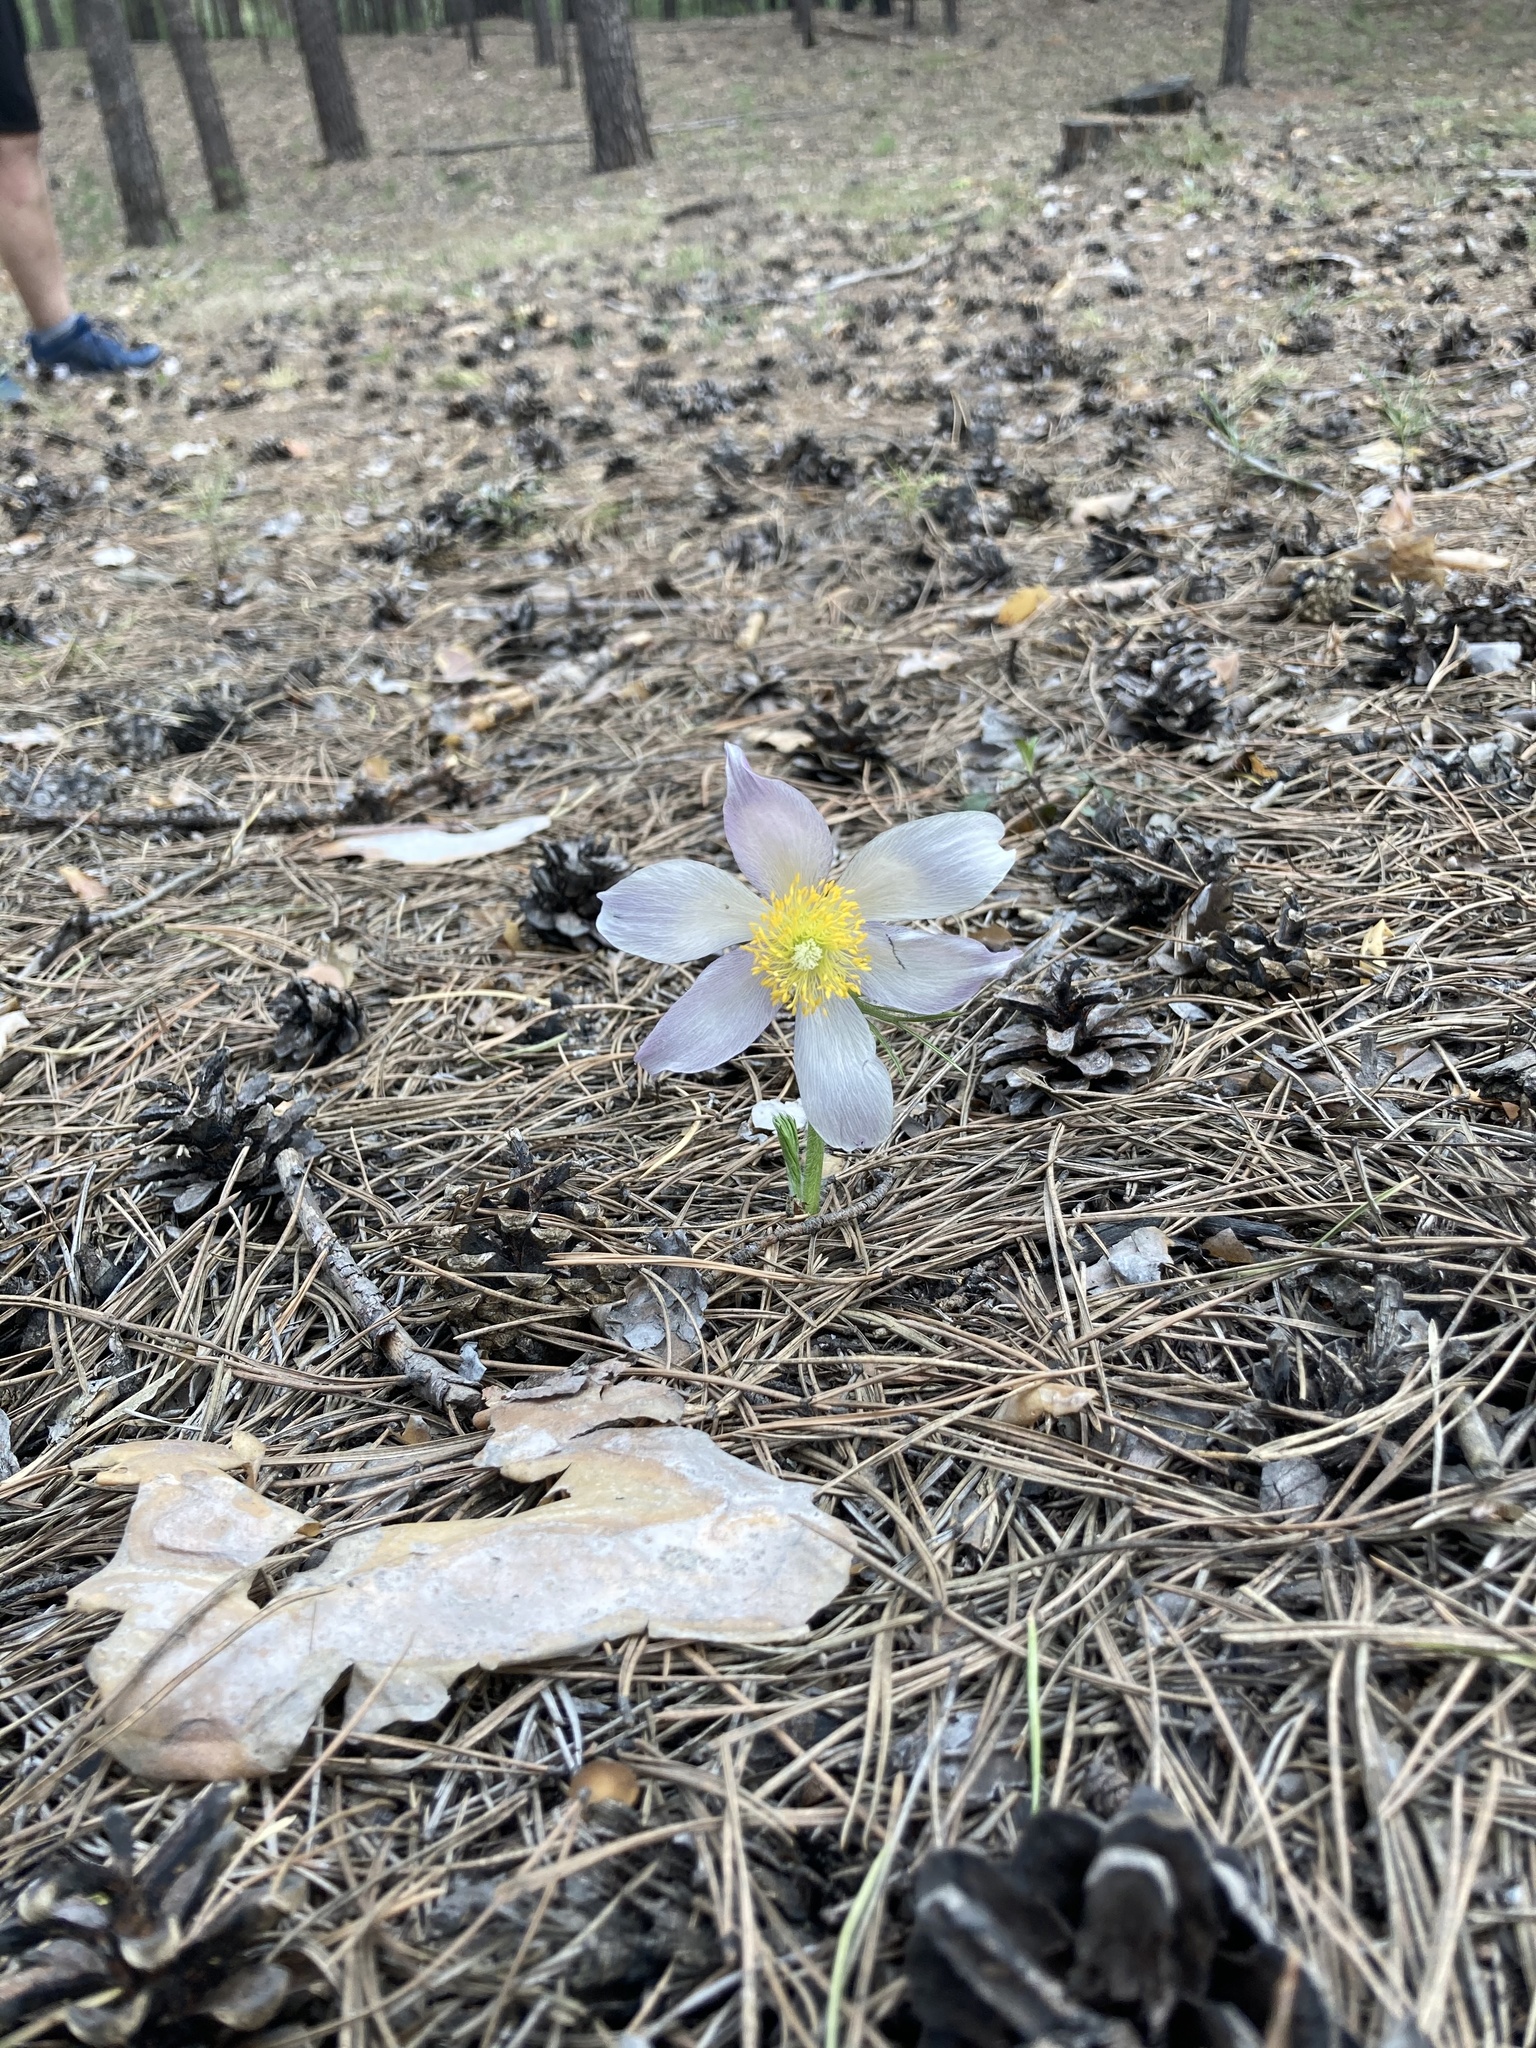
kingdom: Plantae
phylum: Tracheophyta
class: Magnoliopsida
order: Ranunculales
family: Ranunculaceae
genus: Pulsatilla
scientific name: Pulsatilla patens
